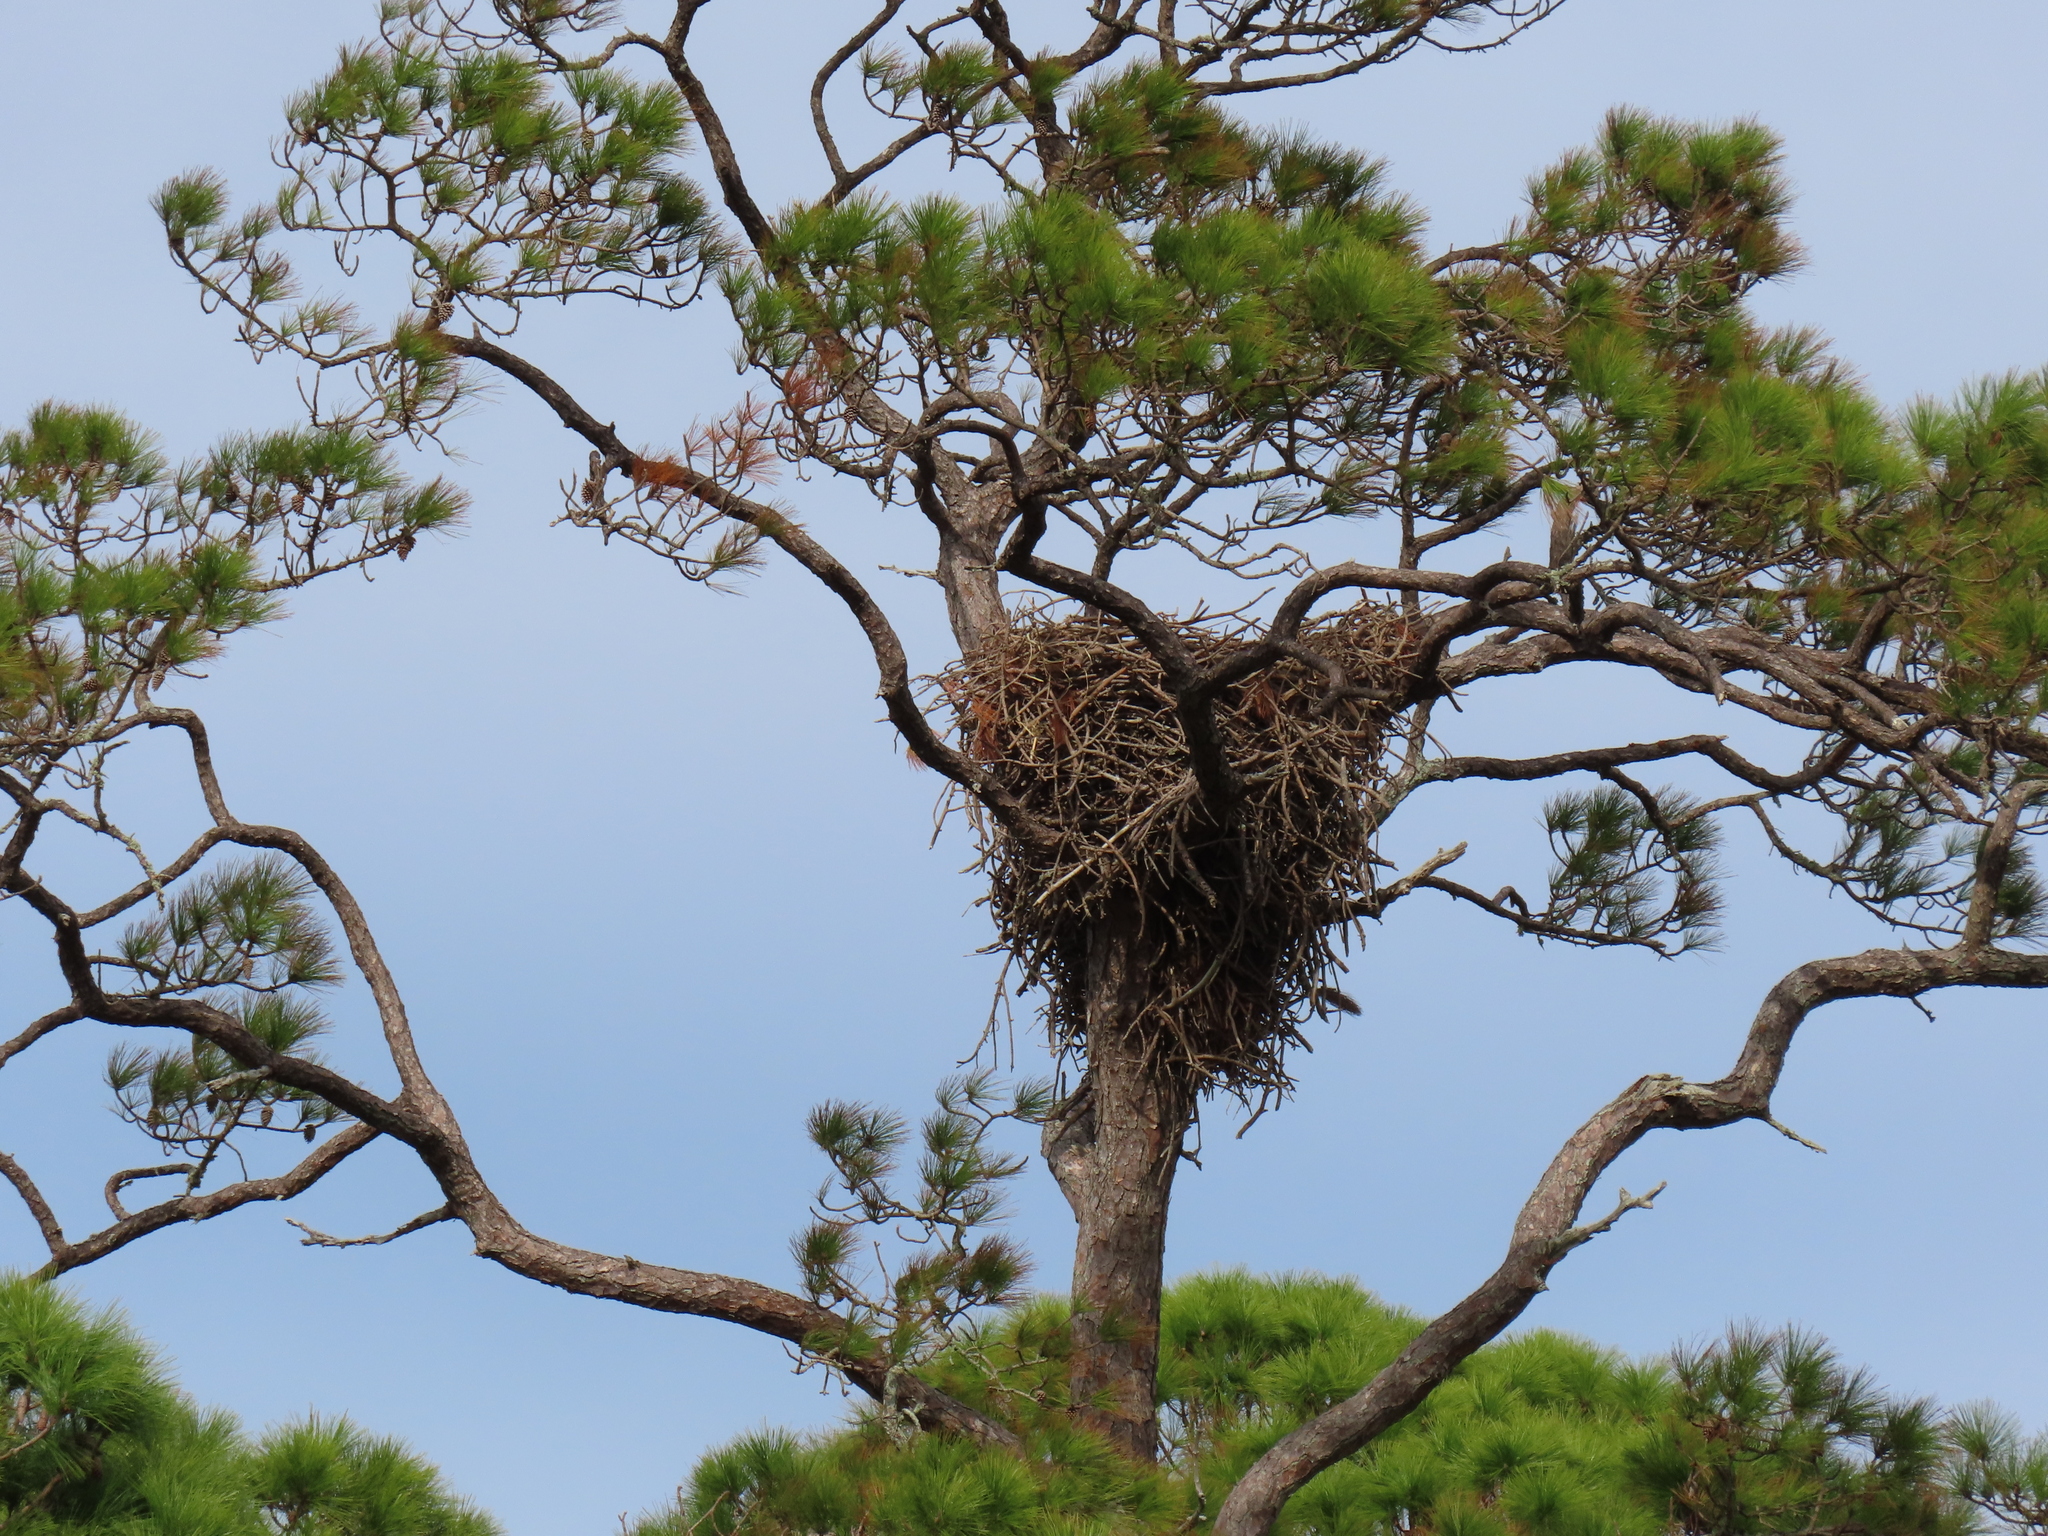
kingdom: Animalia
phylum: Chordata
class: Aves
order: Accipitriformes
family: Accipitridae
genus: Haliaeetus
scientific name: Haliaeetus leucocephalus
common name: Bald eagle
